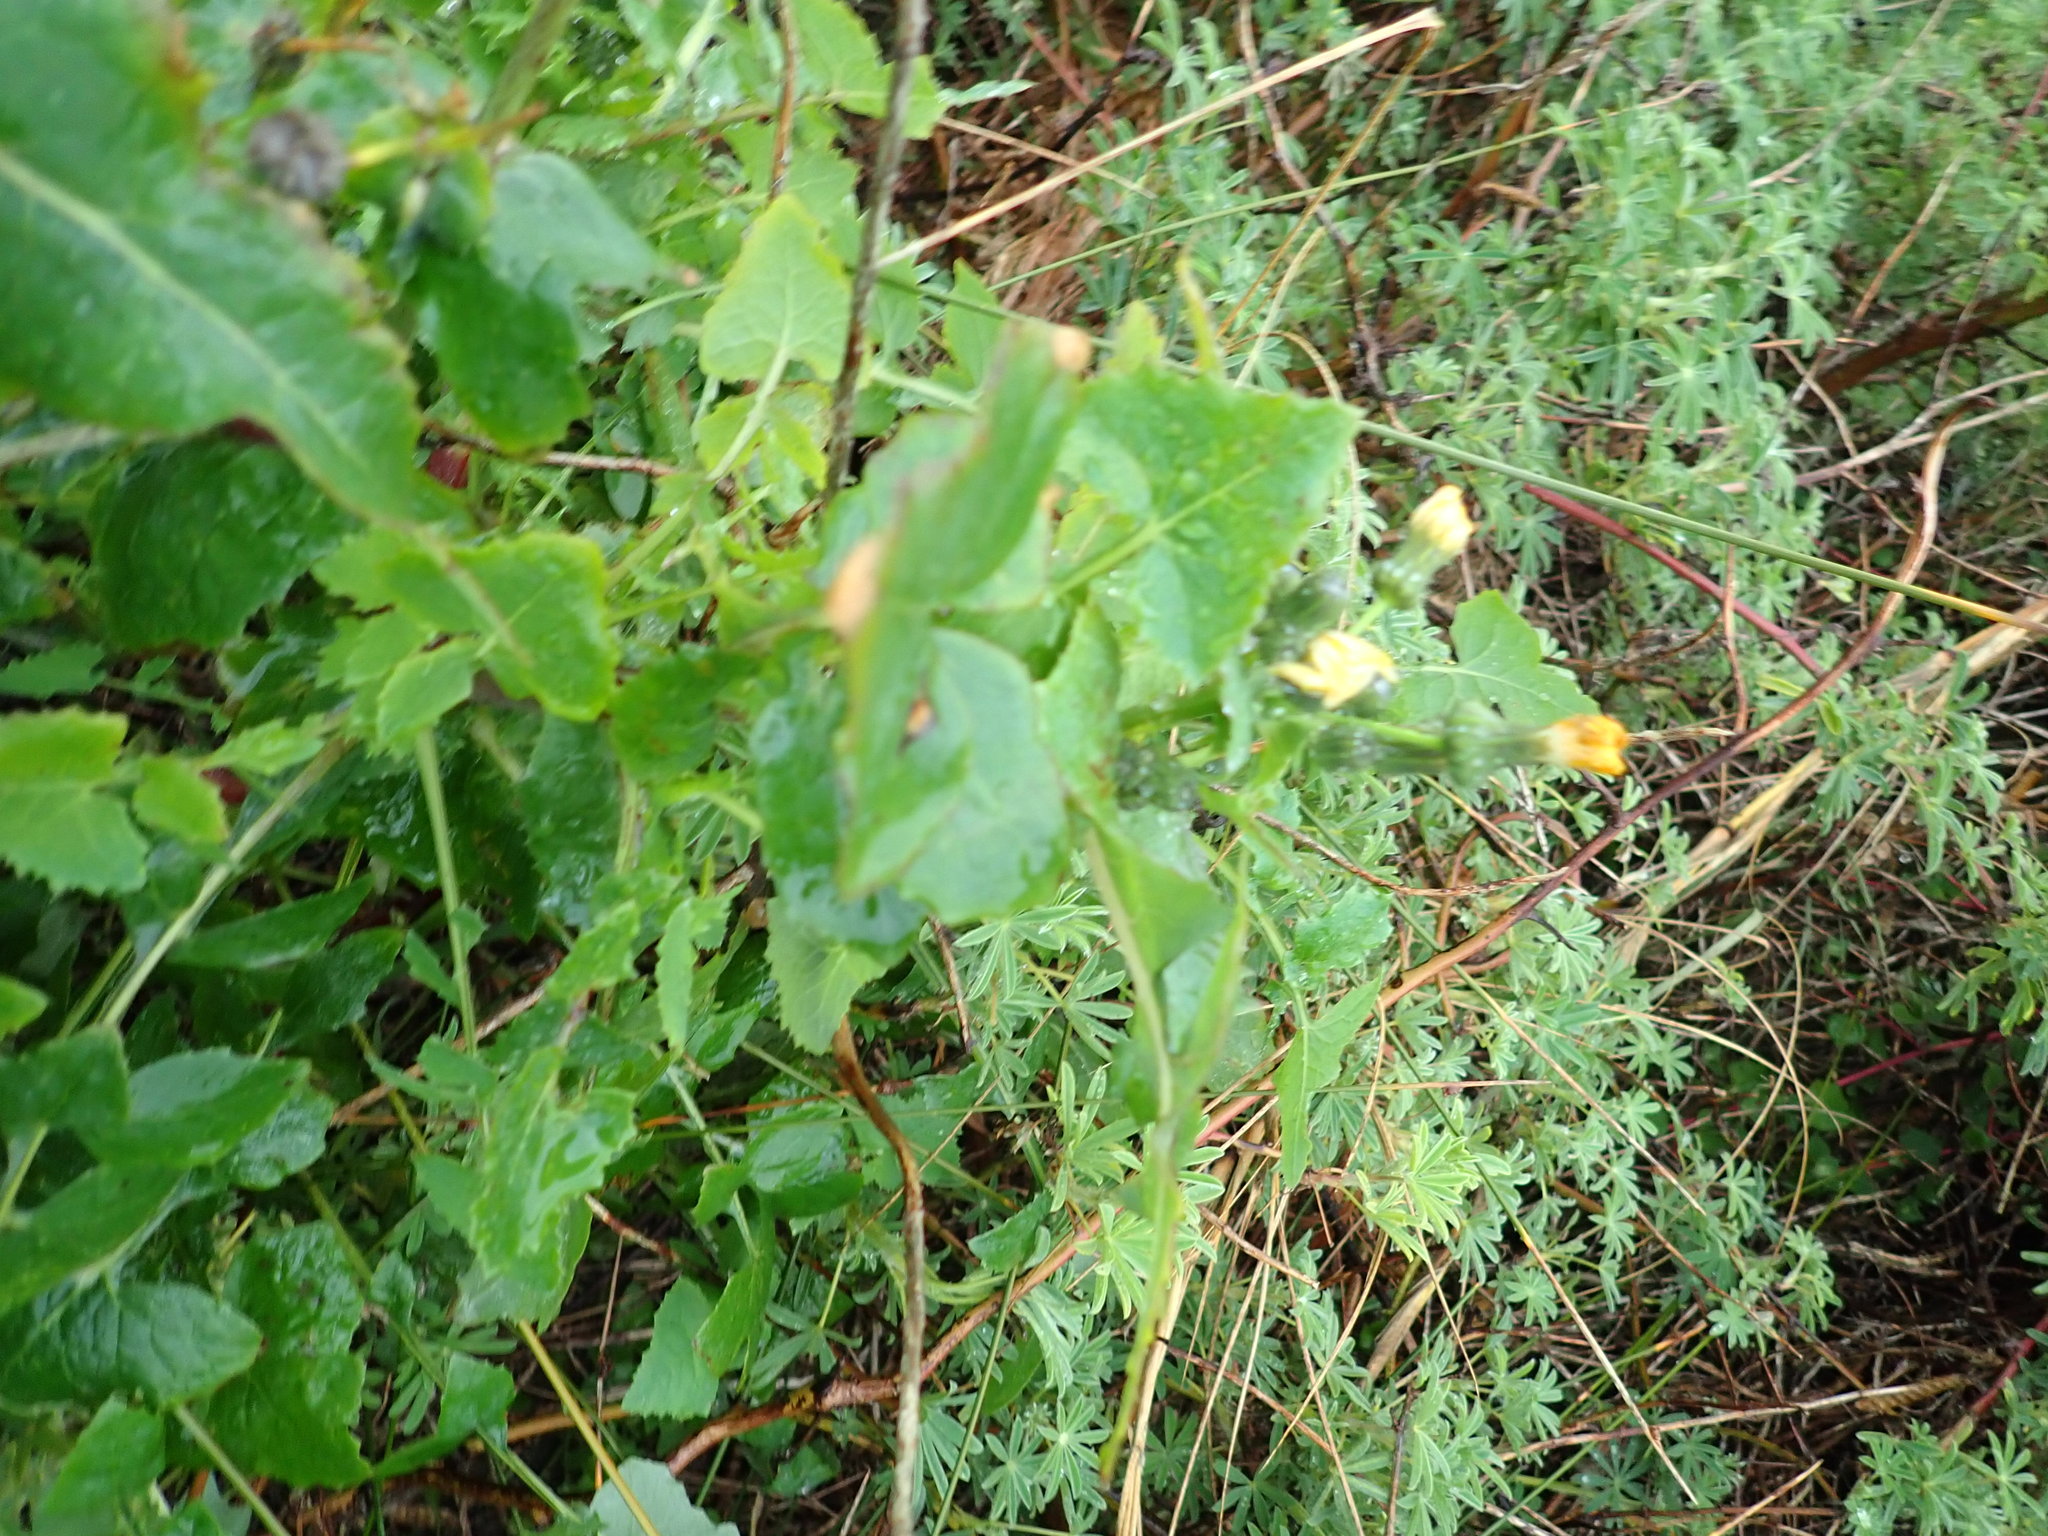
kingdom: Plantae
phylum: Tracheophyta
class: Magnoliopsida
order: Asterales
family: Asteraceae
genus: Sonchus
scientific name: Sonchus oleraceus
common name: Common sowthistle
